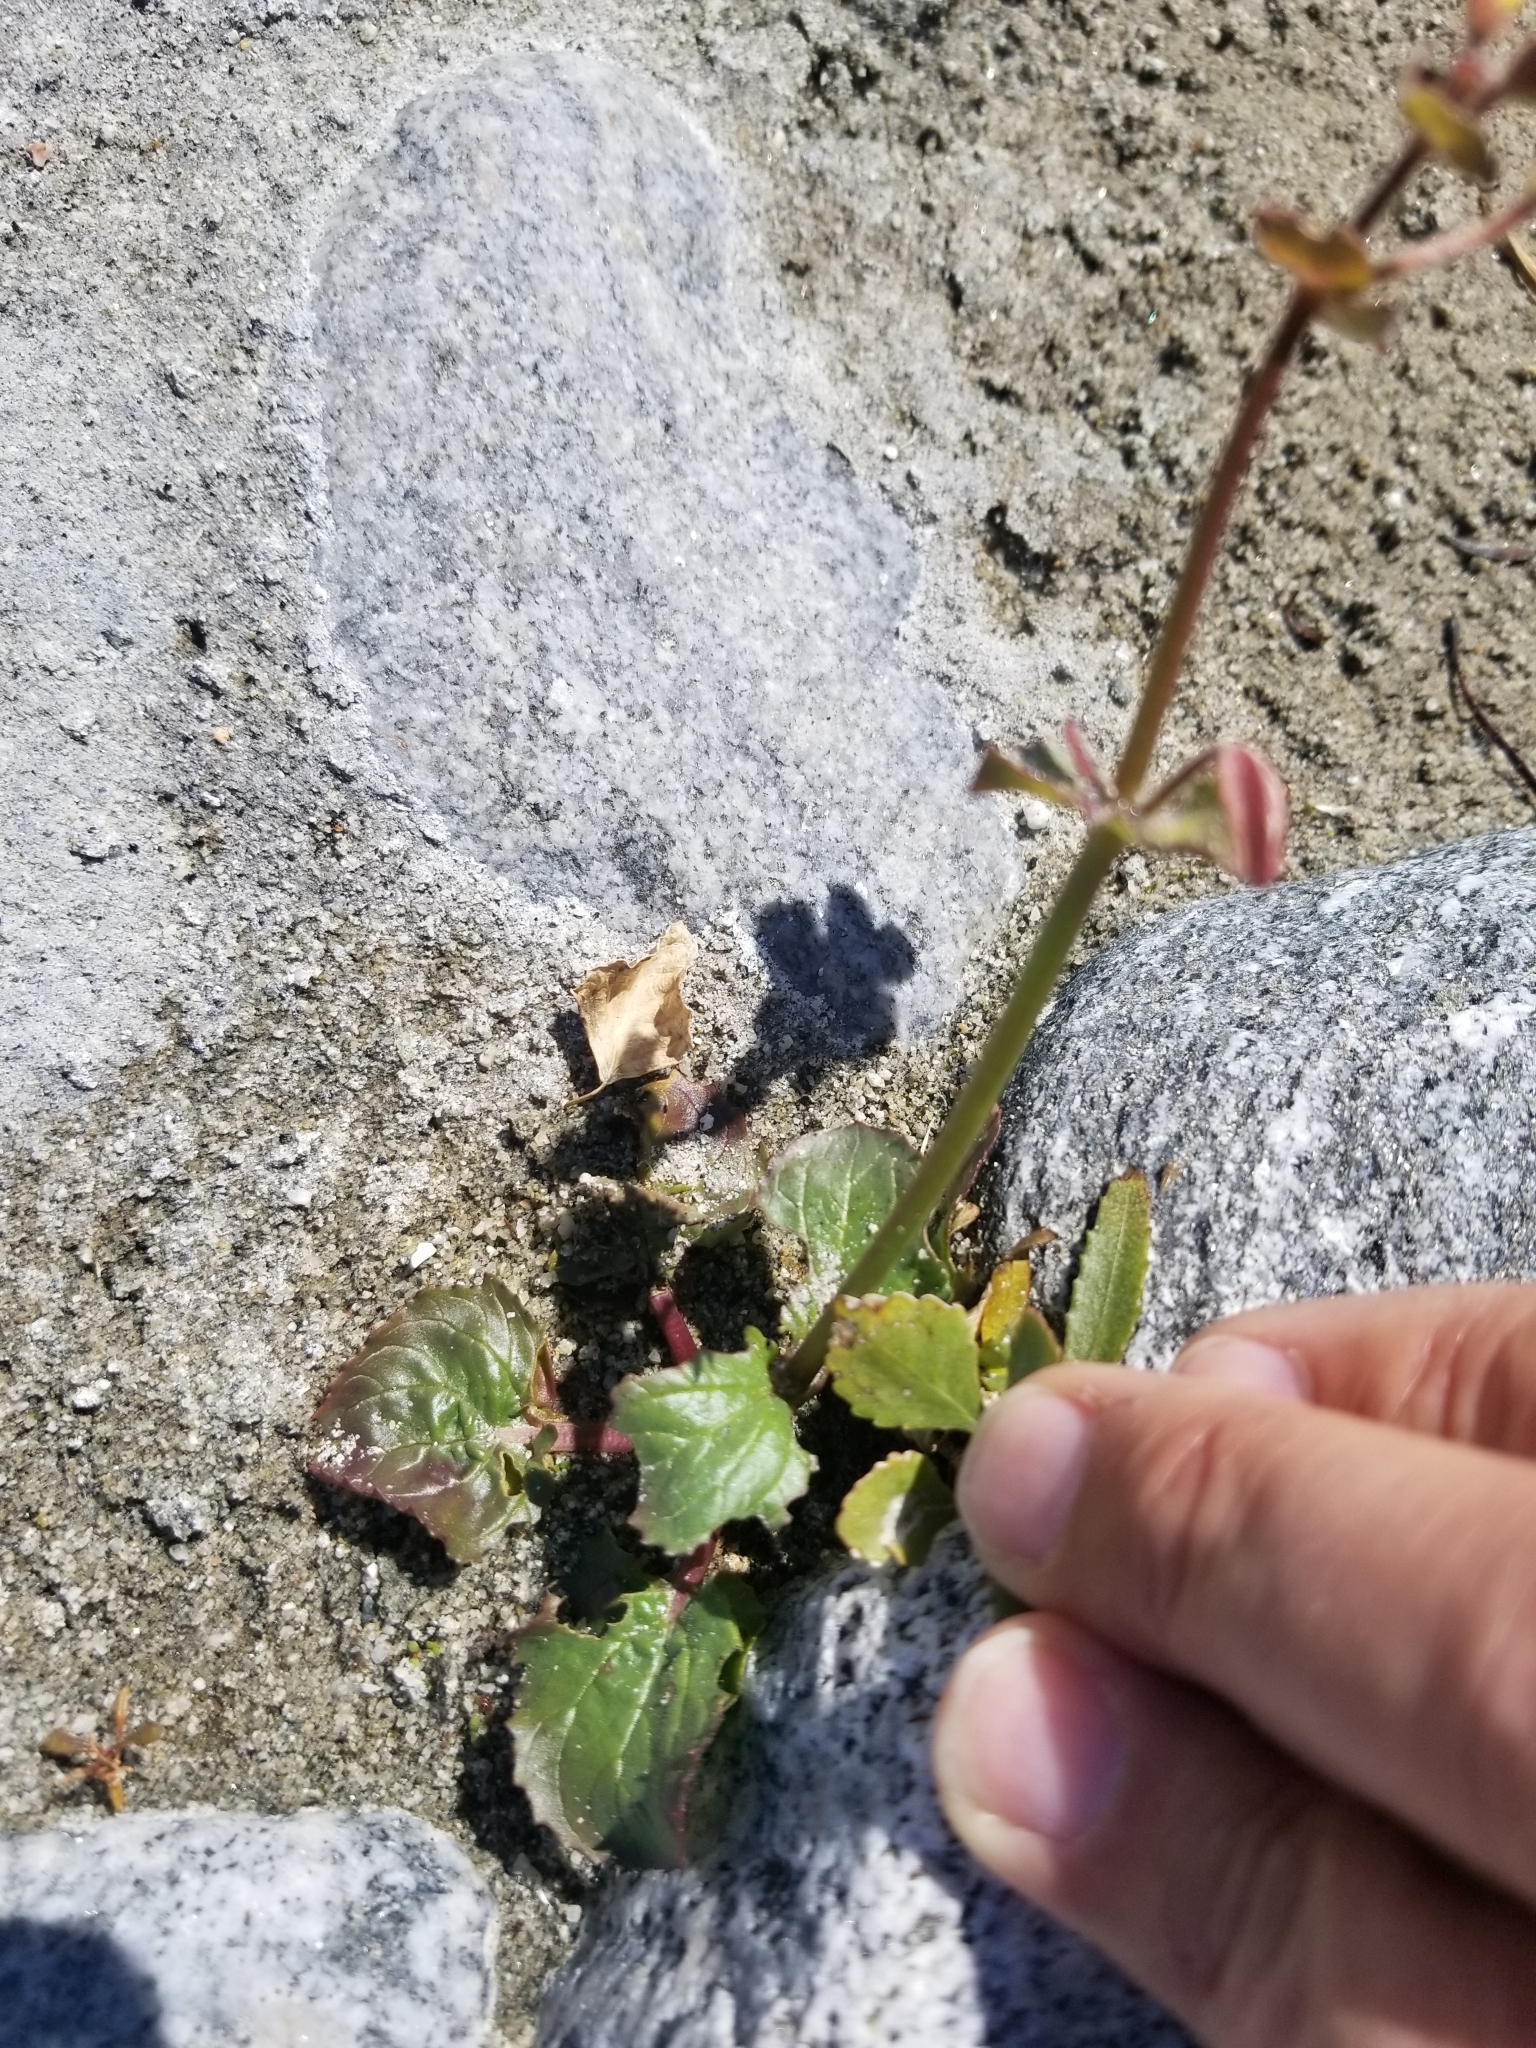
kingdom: Plantae
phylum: Tracheophyta
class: Magnoliopsida
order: Lamiales
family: Phrymaceae
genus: Erythranthe
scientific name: Erythranthe guttata
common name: Monkeyflower
